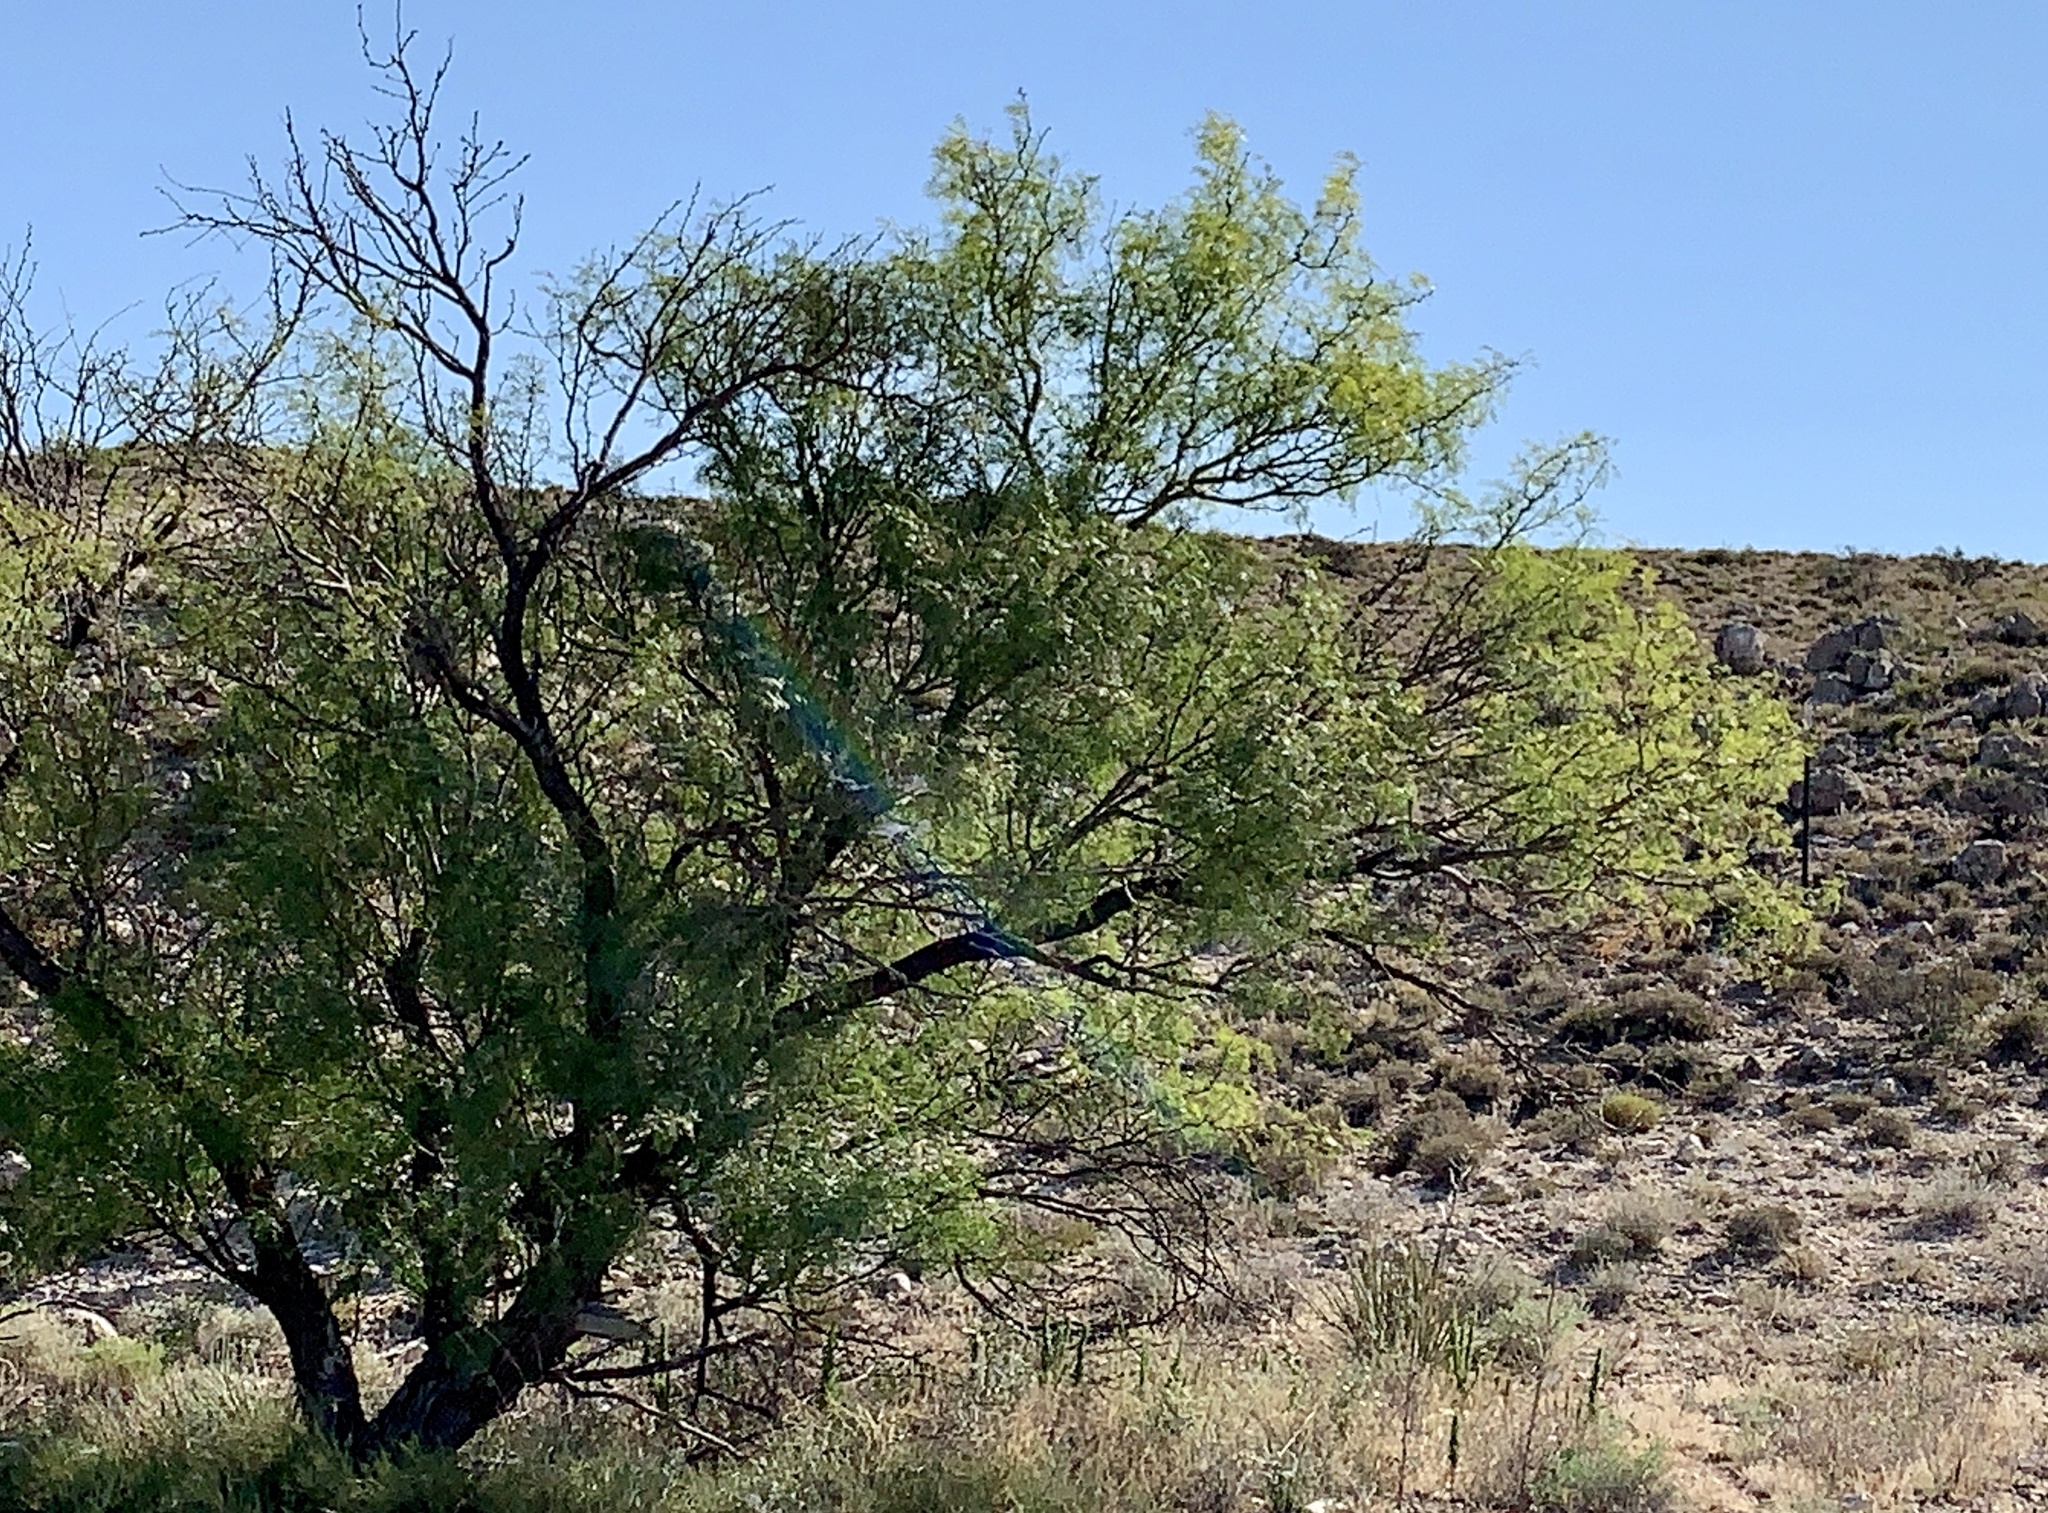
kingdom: Plantae
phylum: Tracheophyta
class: Magnoliopsida
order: Fabales
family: Fabaceae
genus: Prosopis
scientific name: Prosopis glandulosa
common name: Honey mesquite
